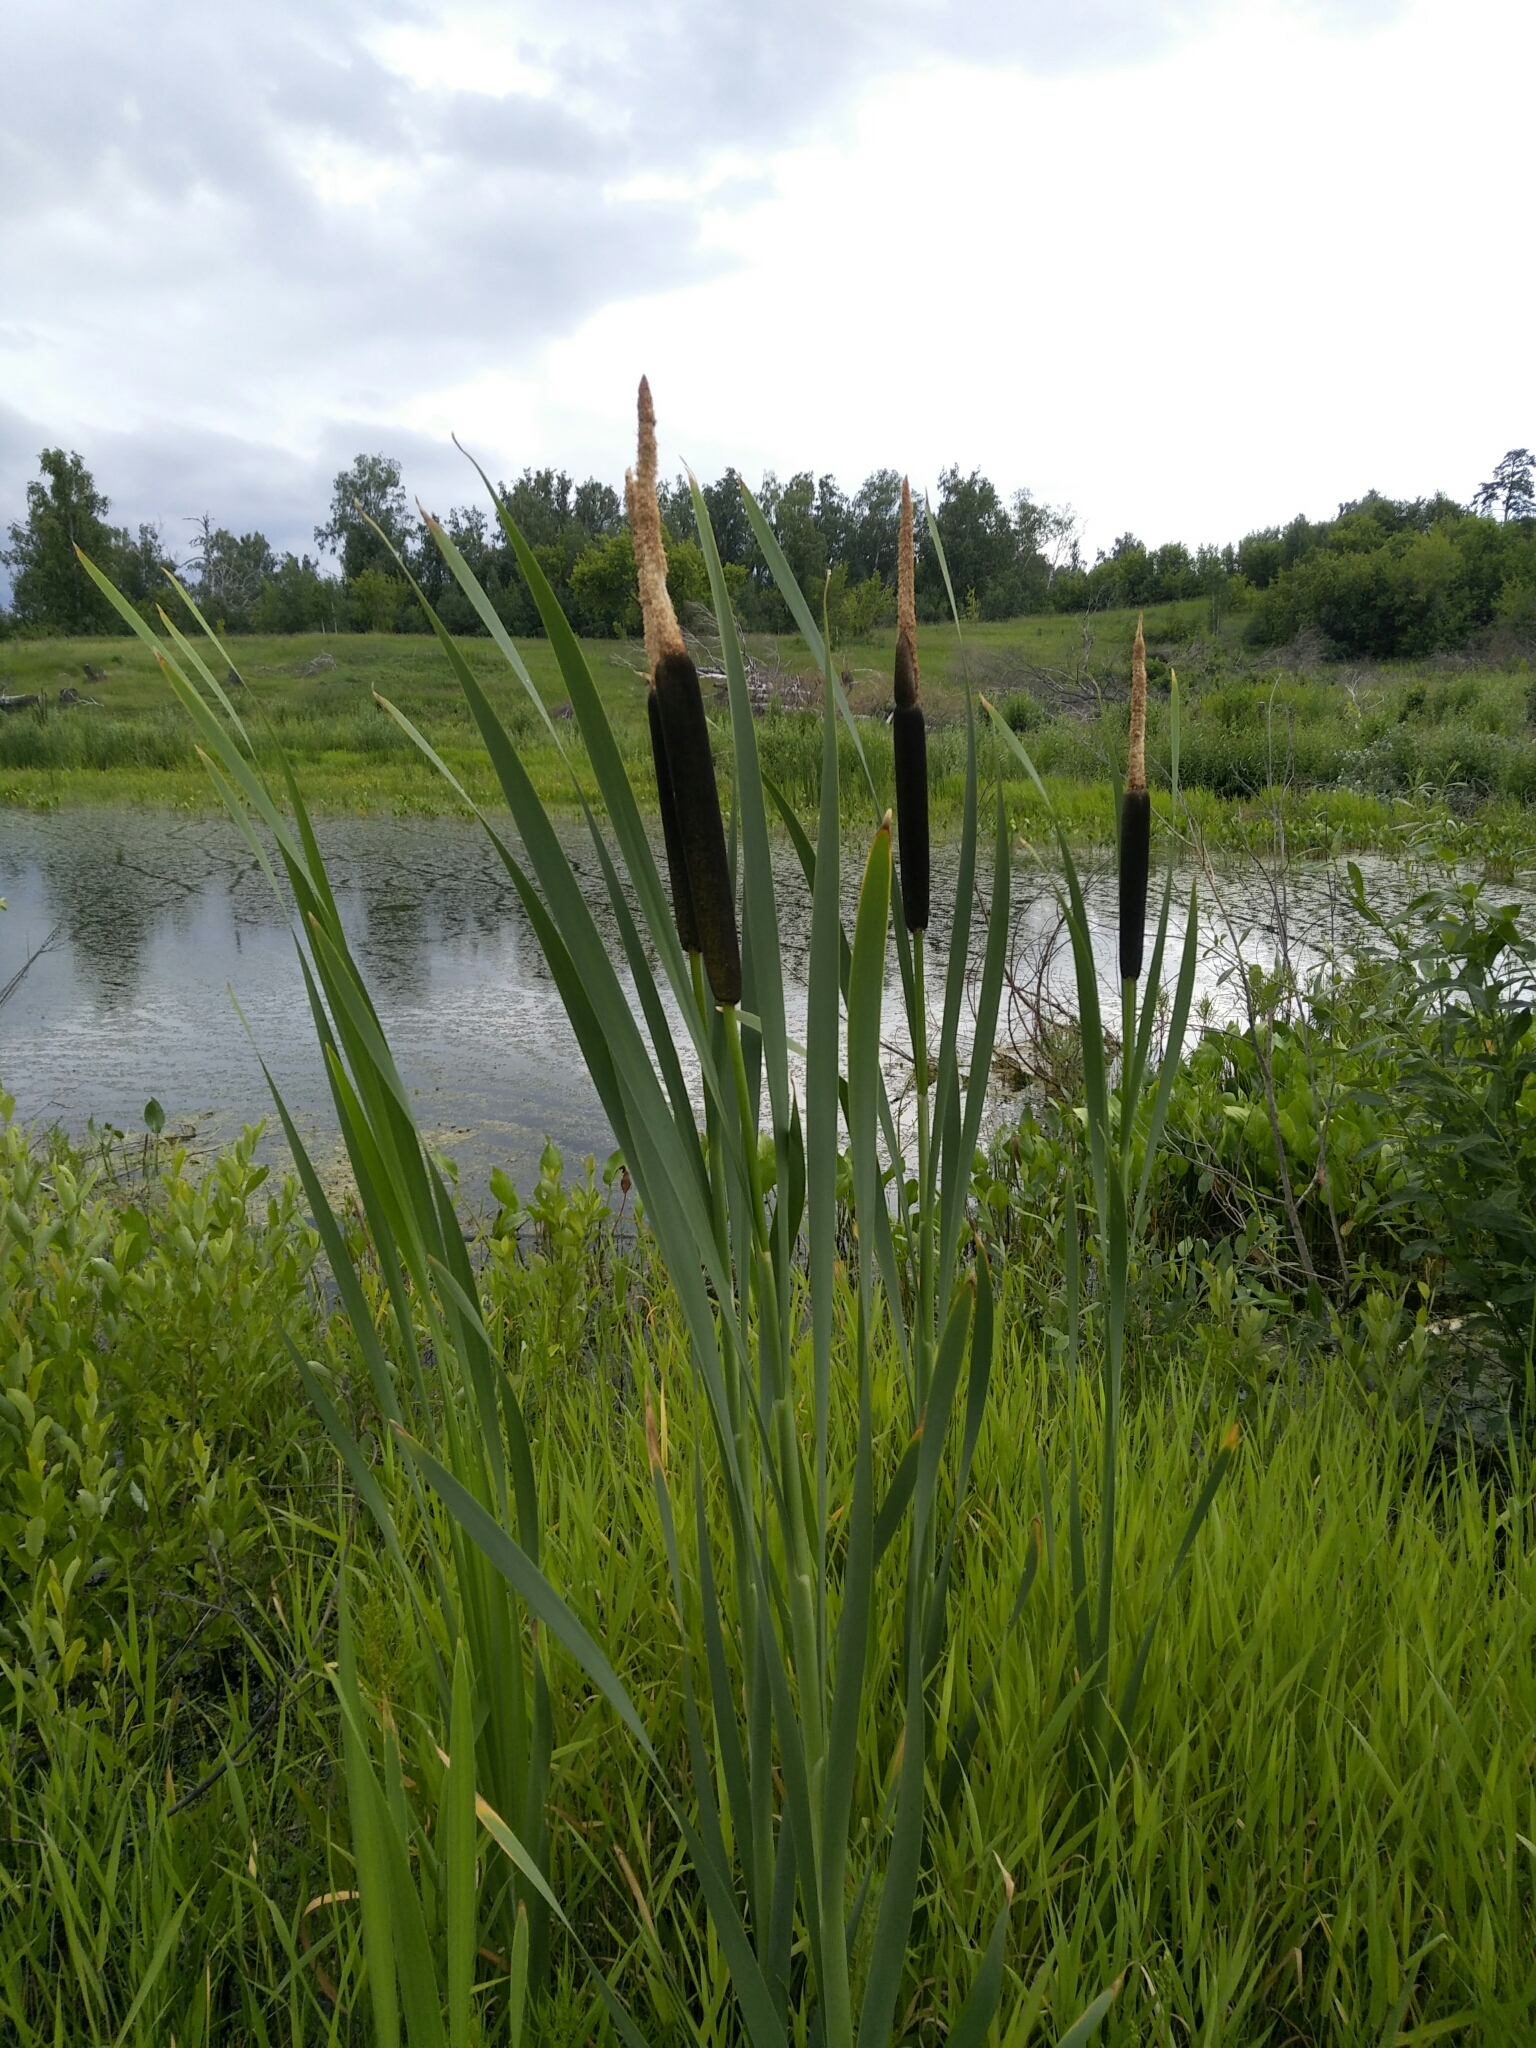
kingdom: Plantae
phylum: Tracheophyta
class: Liliopsida
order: Poales
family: Typhaceae
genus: Typha
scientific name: Typha latifolia
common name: Broadleaf cattail
